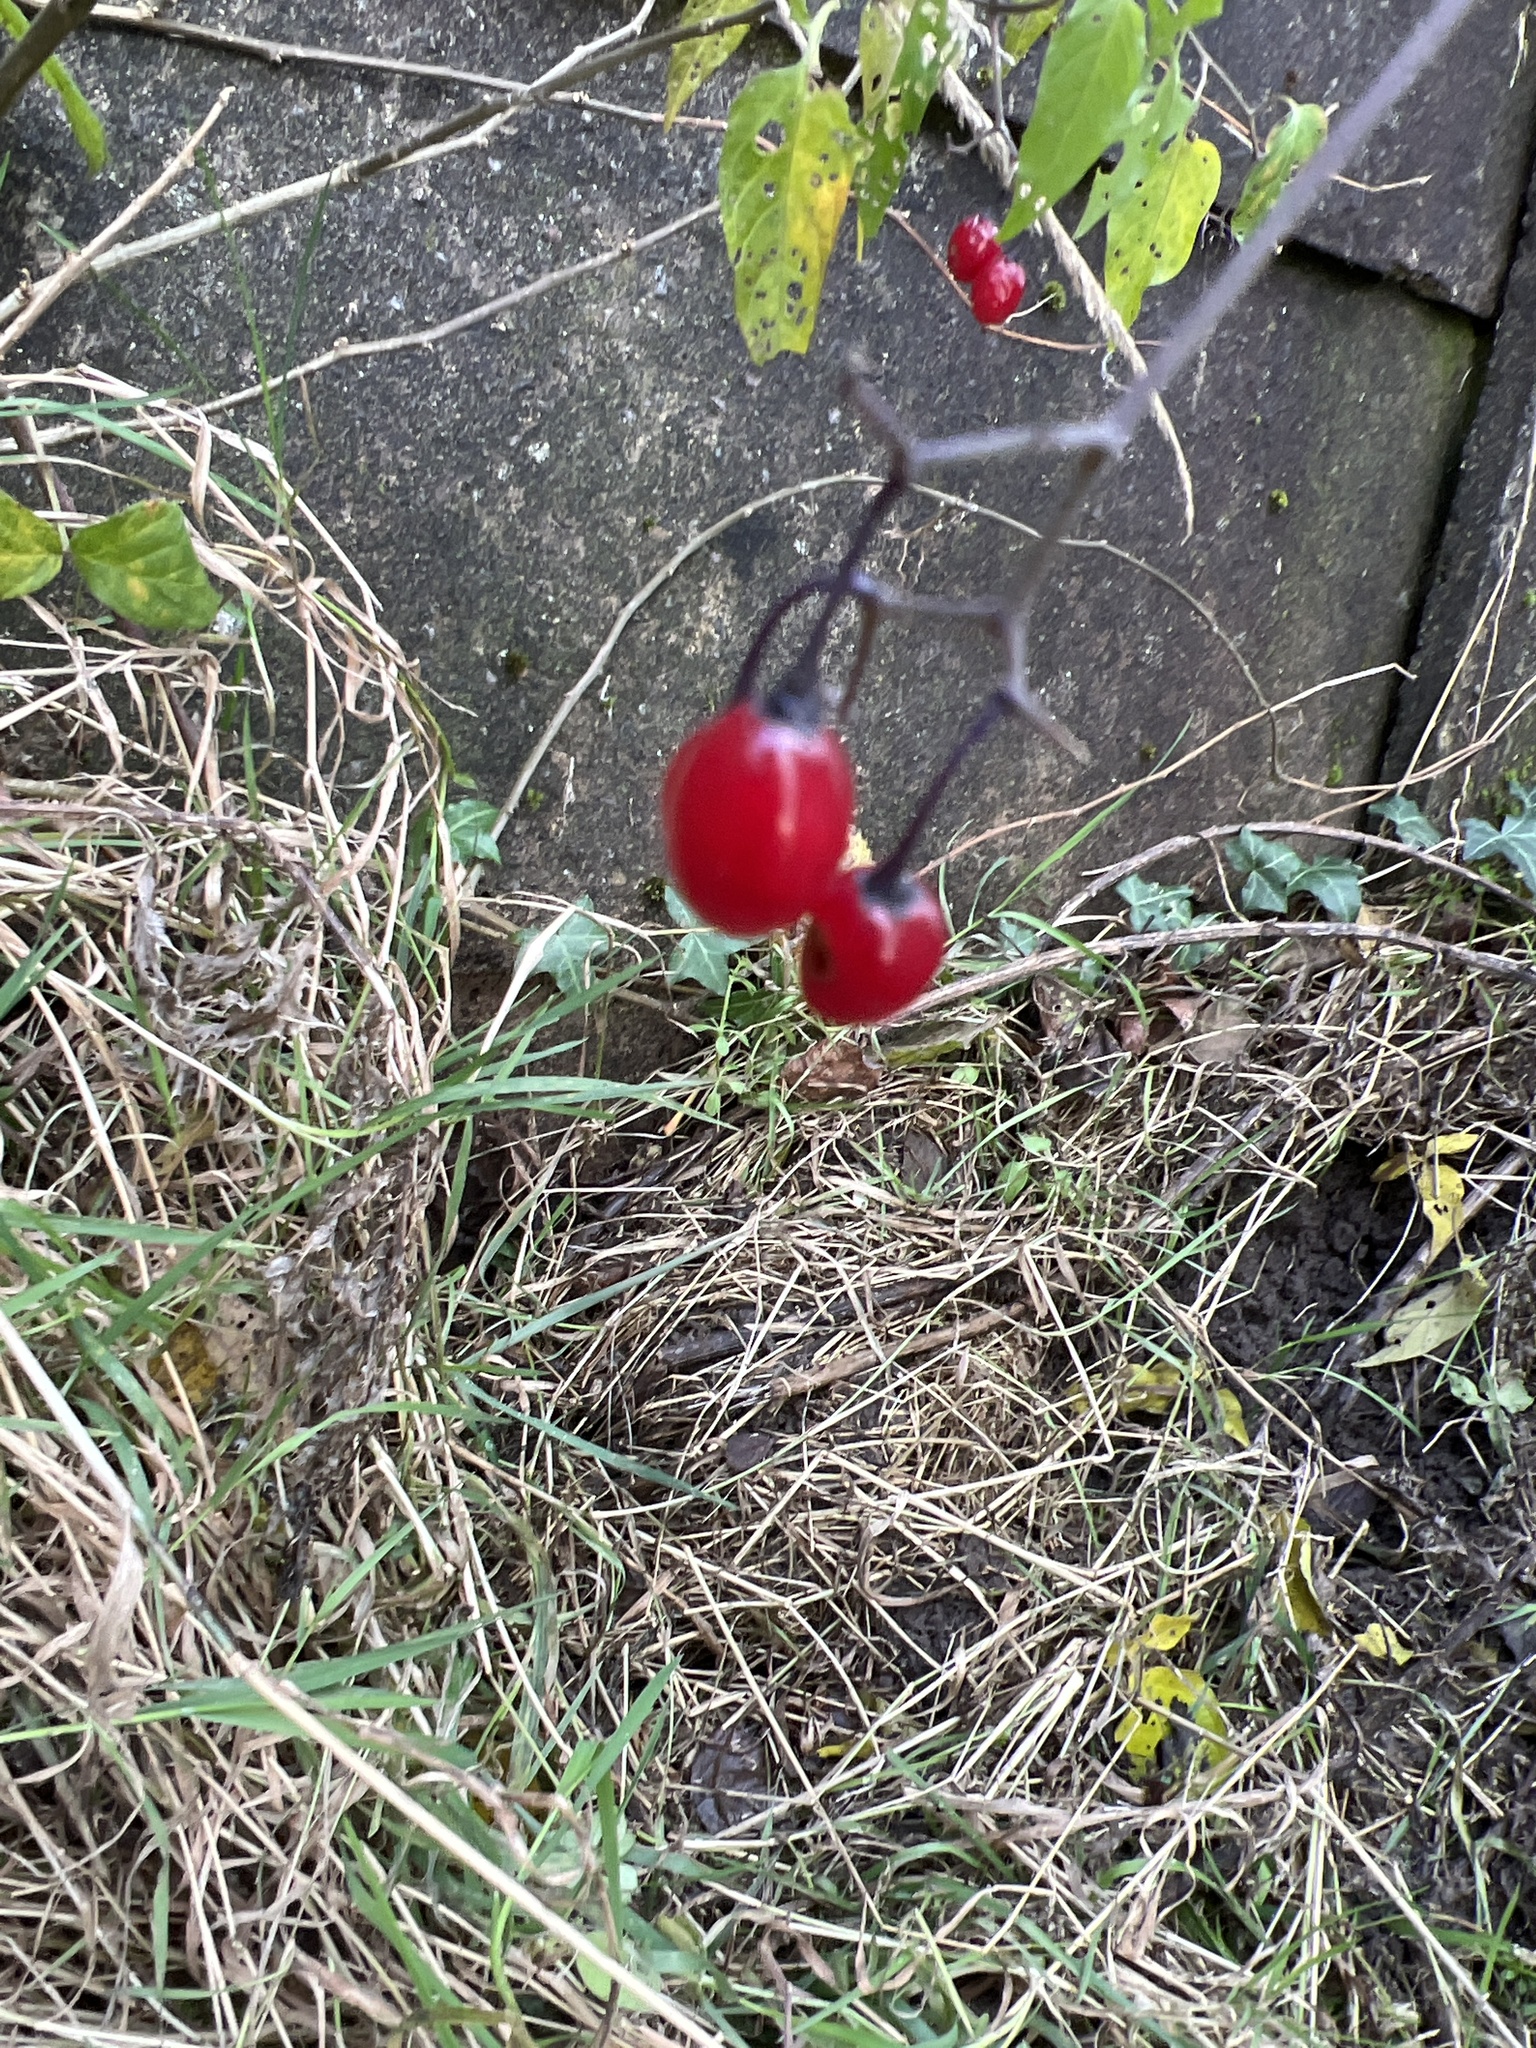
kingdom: Plantae
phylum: Tracheophyta
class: Magnoliopsida
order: Solanales
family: Solanaceae
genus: Solanum
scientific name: Solanum dulcamara
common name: Climbing nightshade
